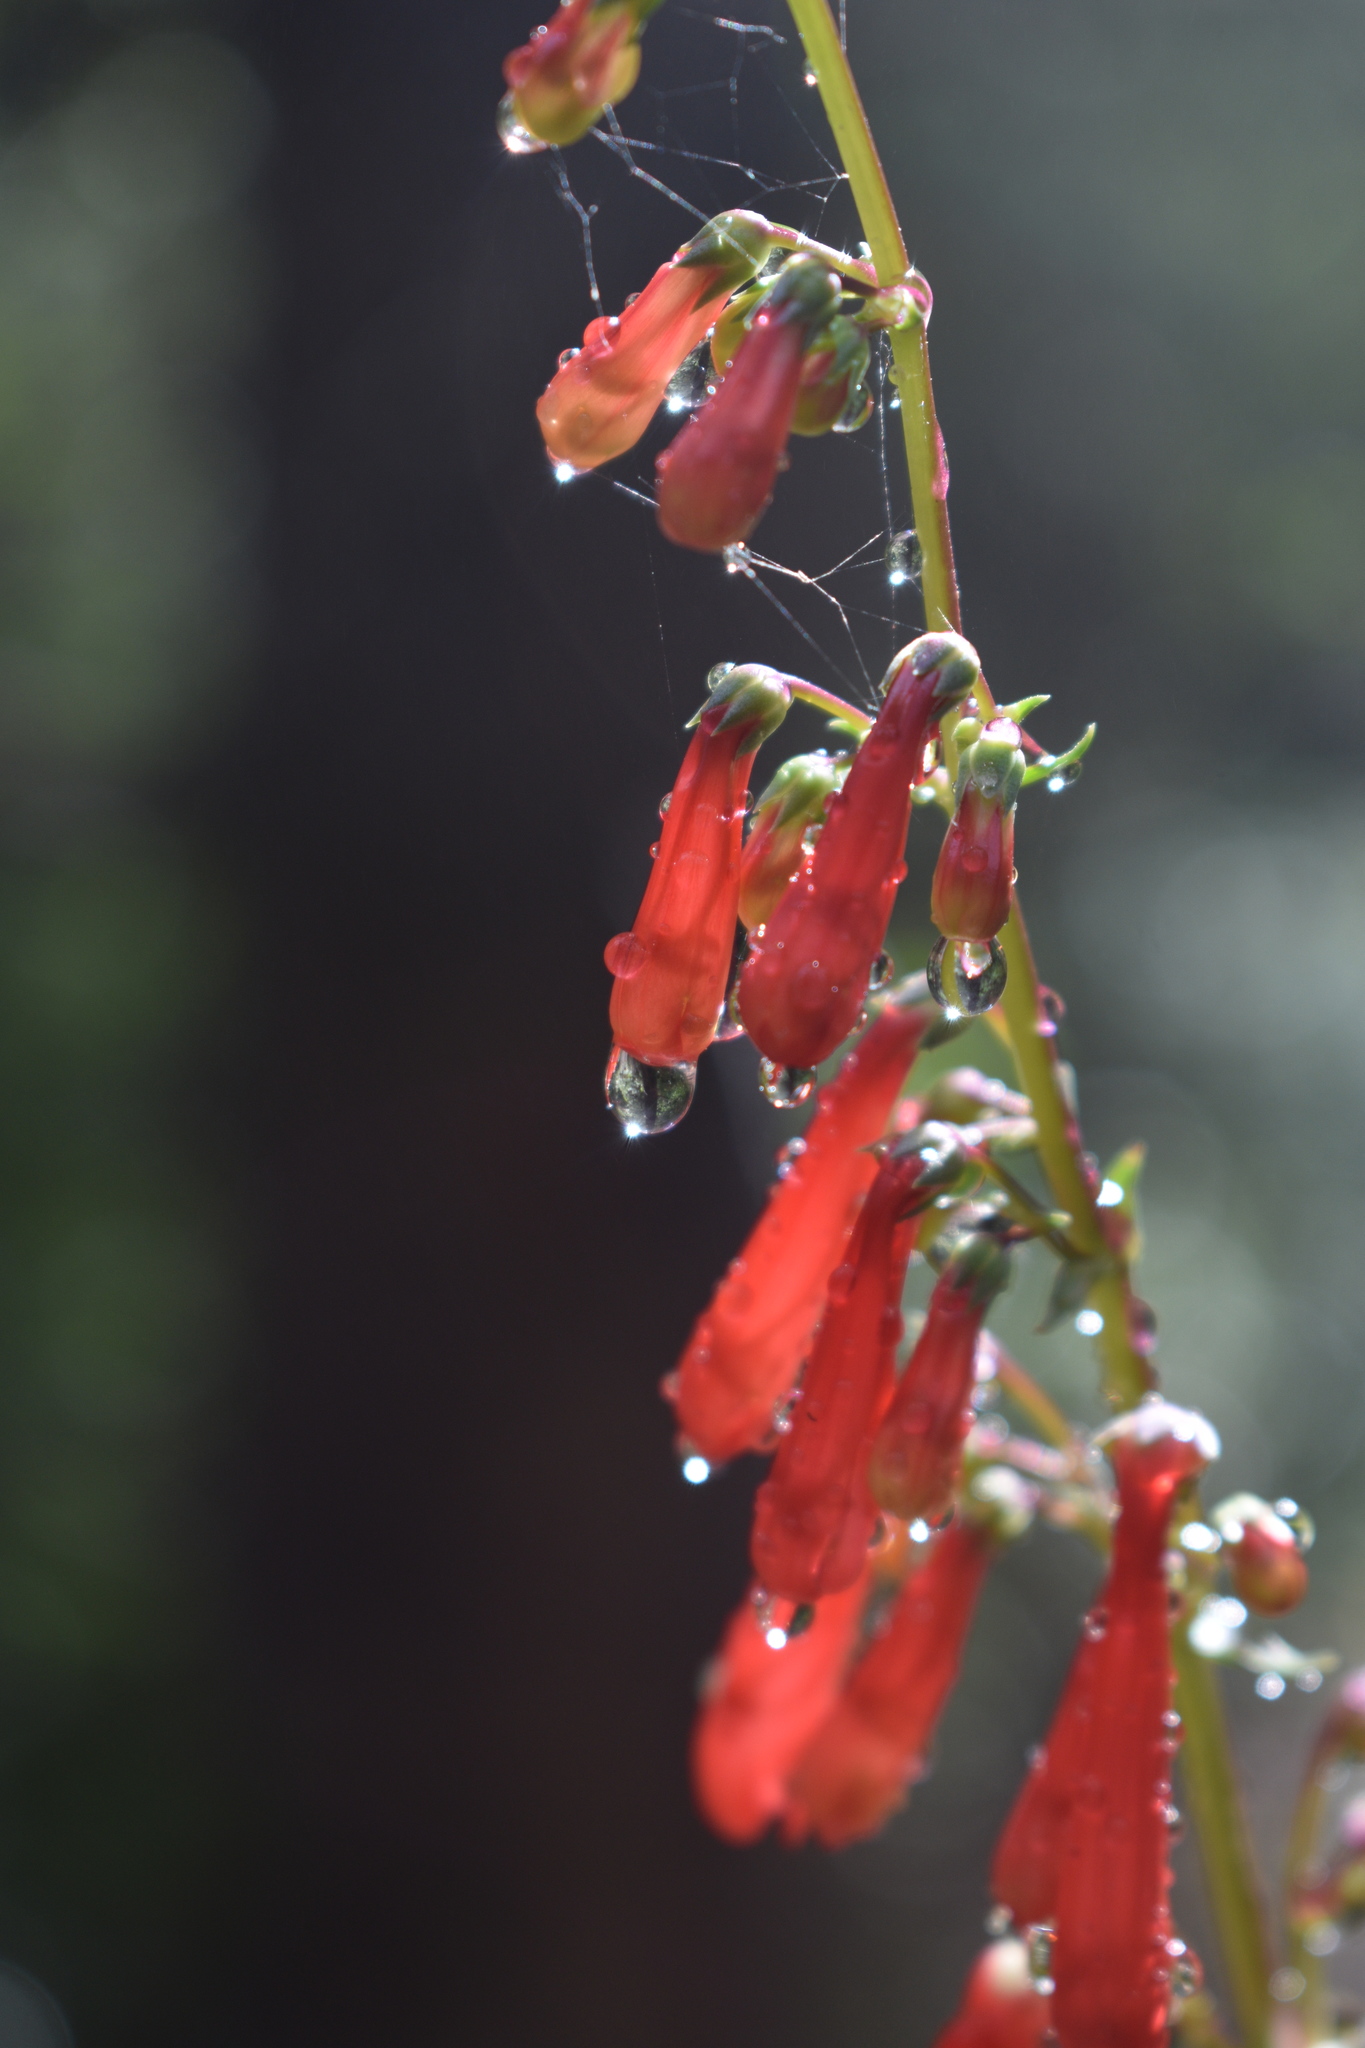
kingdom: Plantae
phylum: Tracheophyta
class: Magnoliopsida
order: Lamiales
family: Plantaginaceae
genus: Penstemon
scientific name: Penstemon eatonii
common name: Eaton's penstemon
